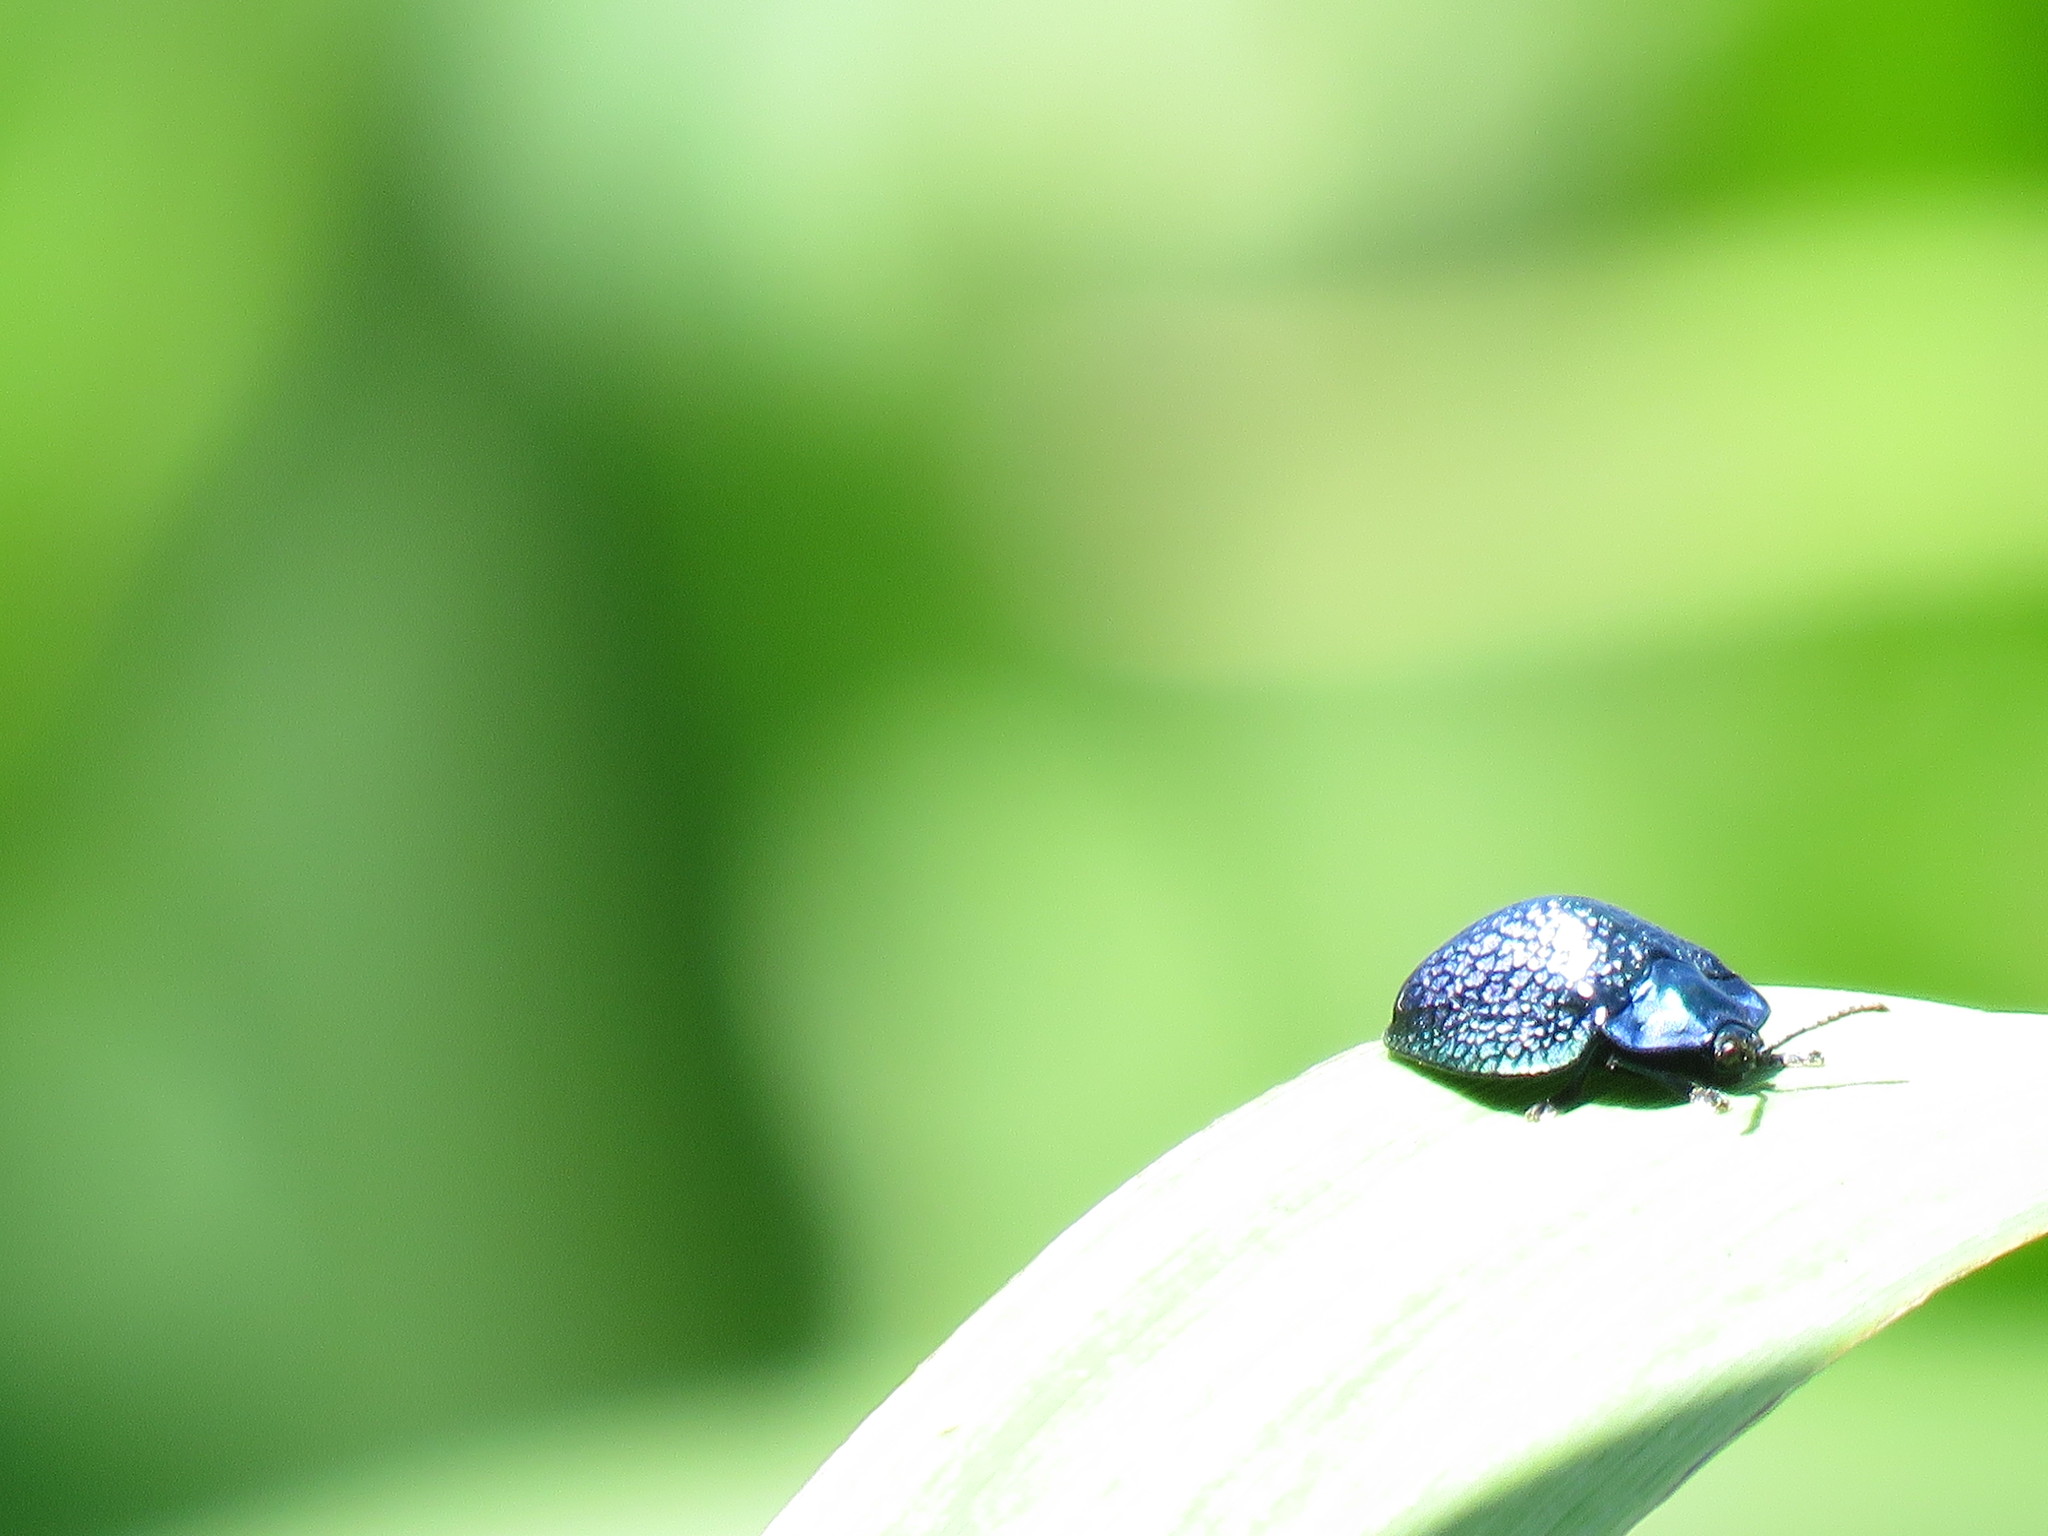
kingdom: Animalia
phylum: Arthropoda
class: Insecta
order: Coleoptera
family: Chrysomelidae
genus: Stolas
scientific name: Stolas festiva
